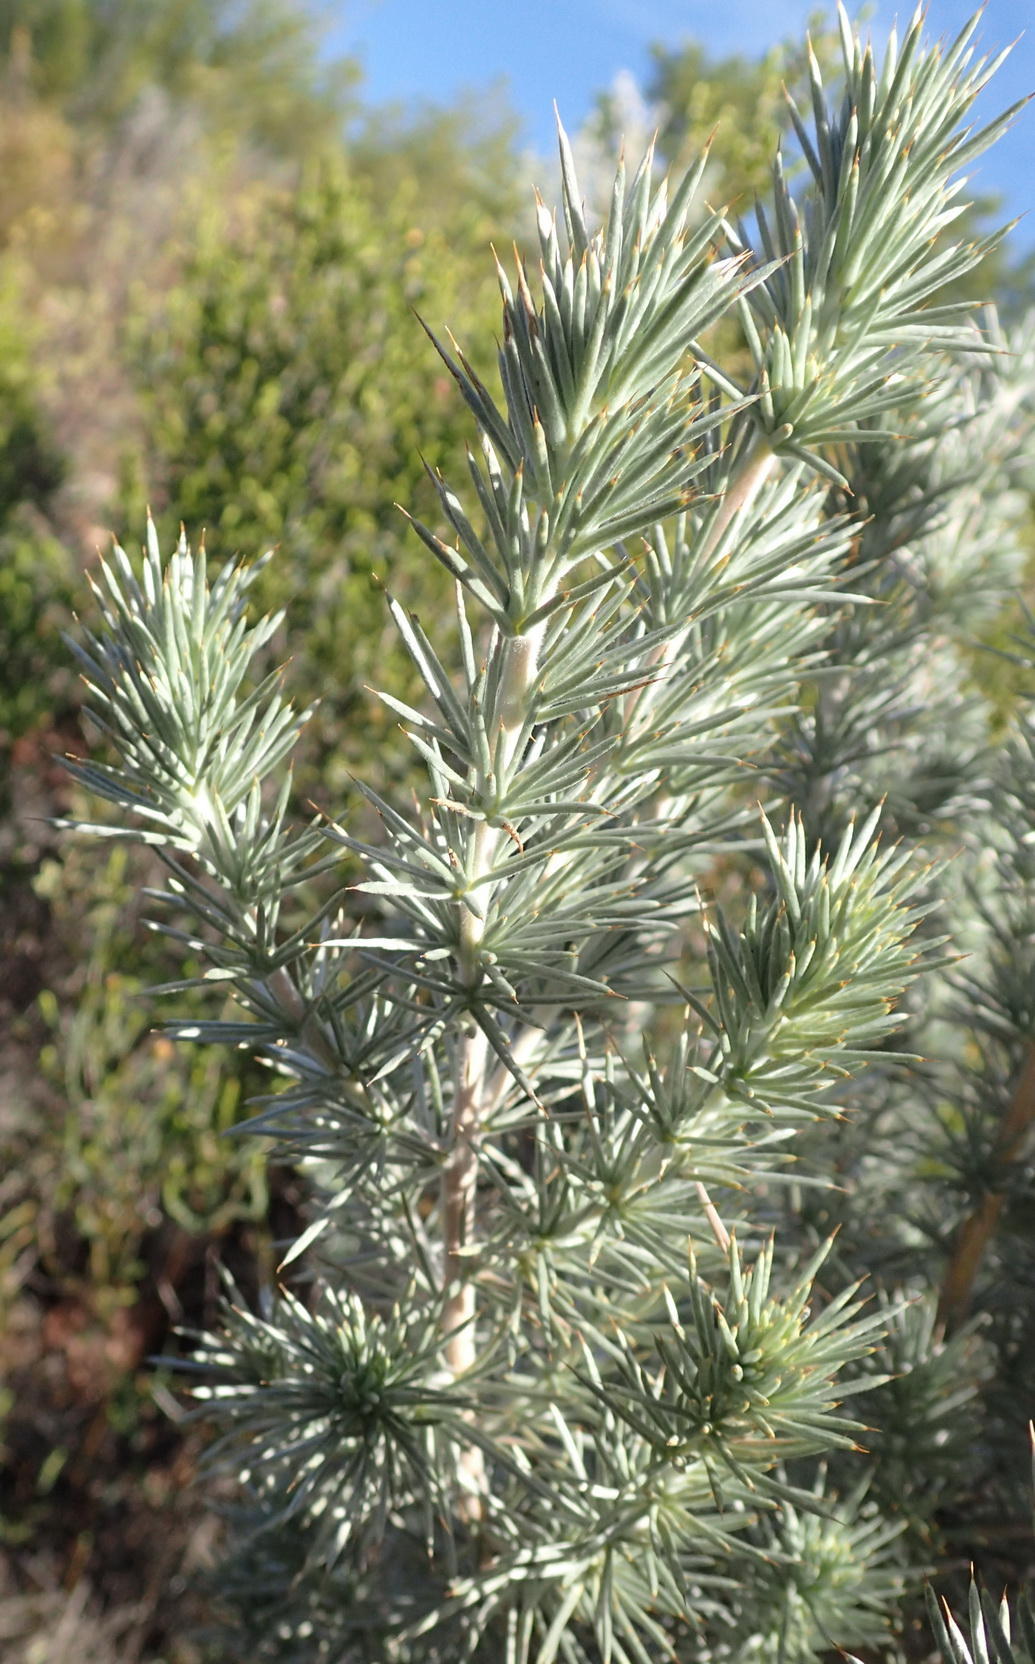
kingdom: Plantae
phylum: Tracheophyta
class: Magnoliopsida
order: Fabales
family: Fabaceae
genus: Aspalathus
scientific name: Aspalathus hystrix
